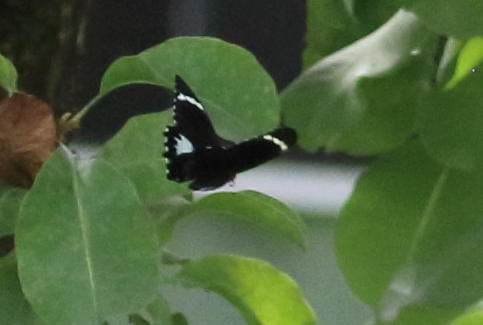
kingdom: Animalia
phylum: Arthropoda
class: Insecta
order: Lepidoptera
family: Papilionidae
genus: Papilio
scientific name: Papilio aegeus
